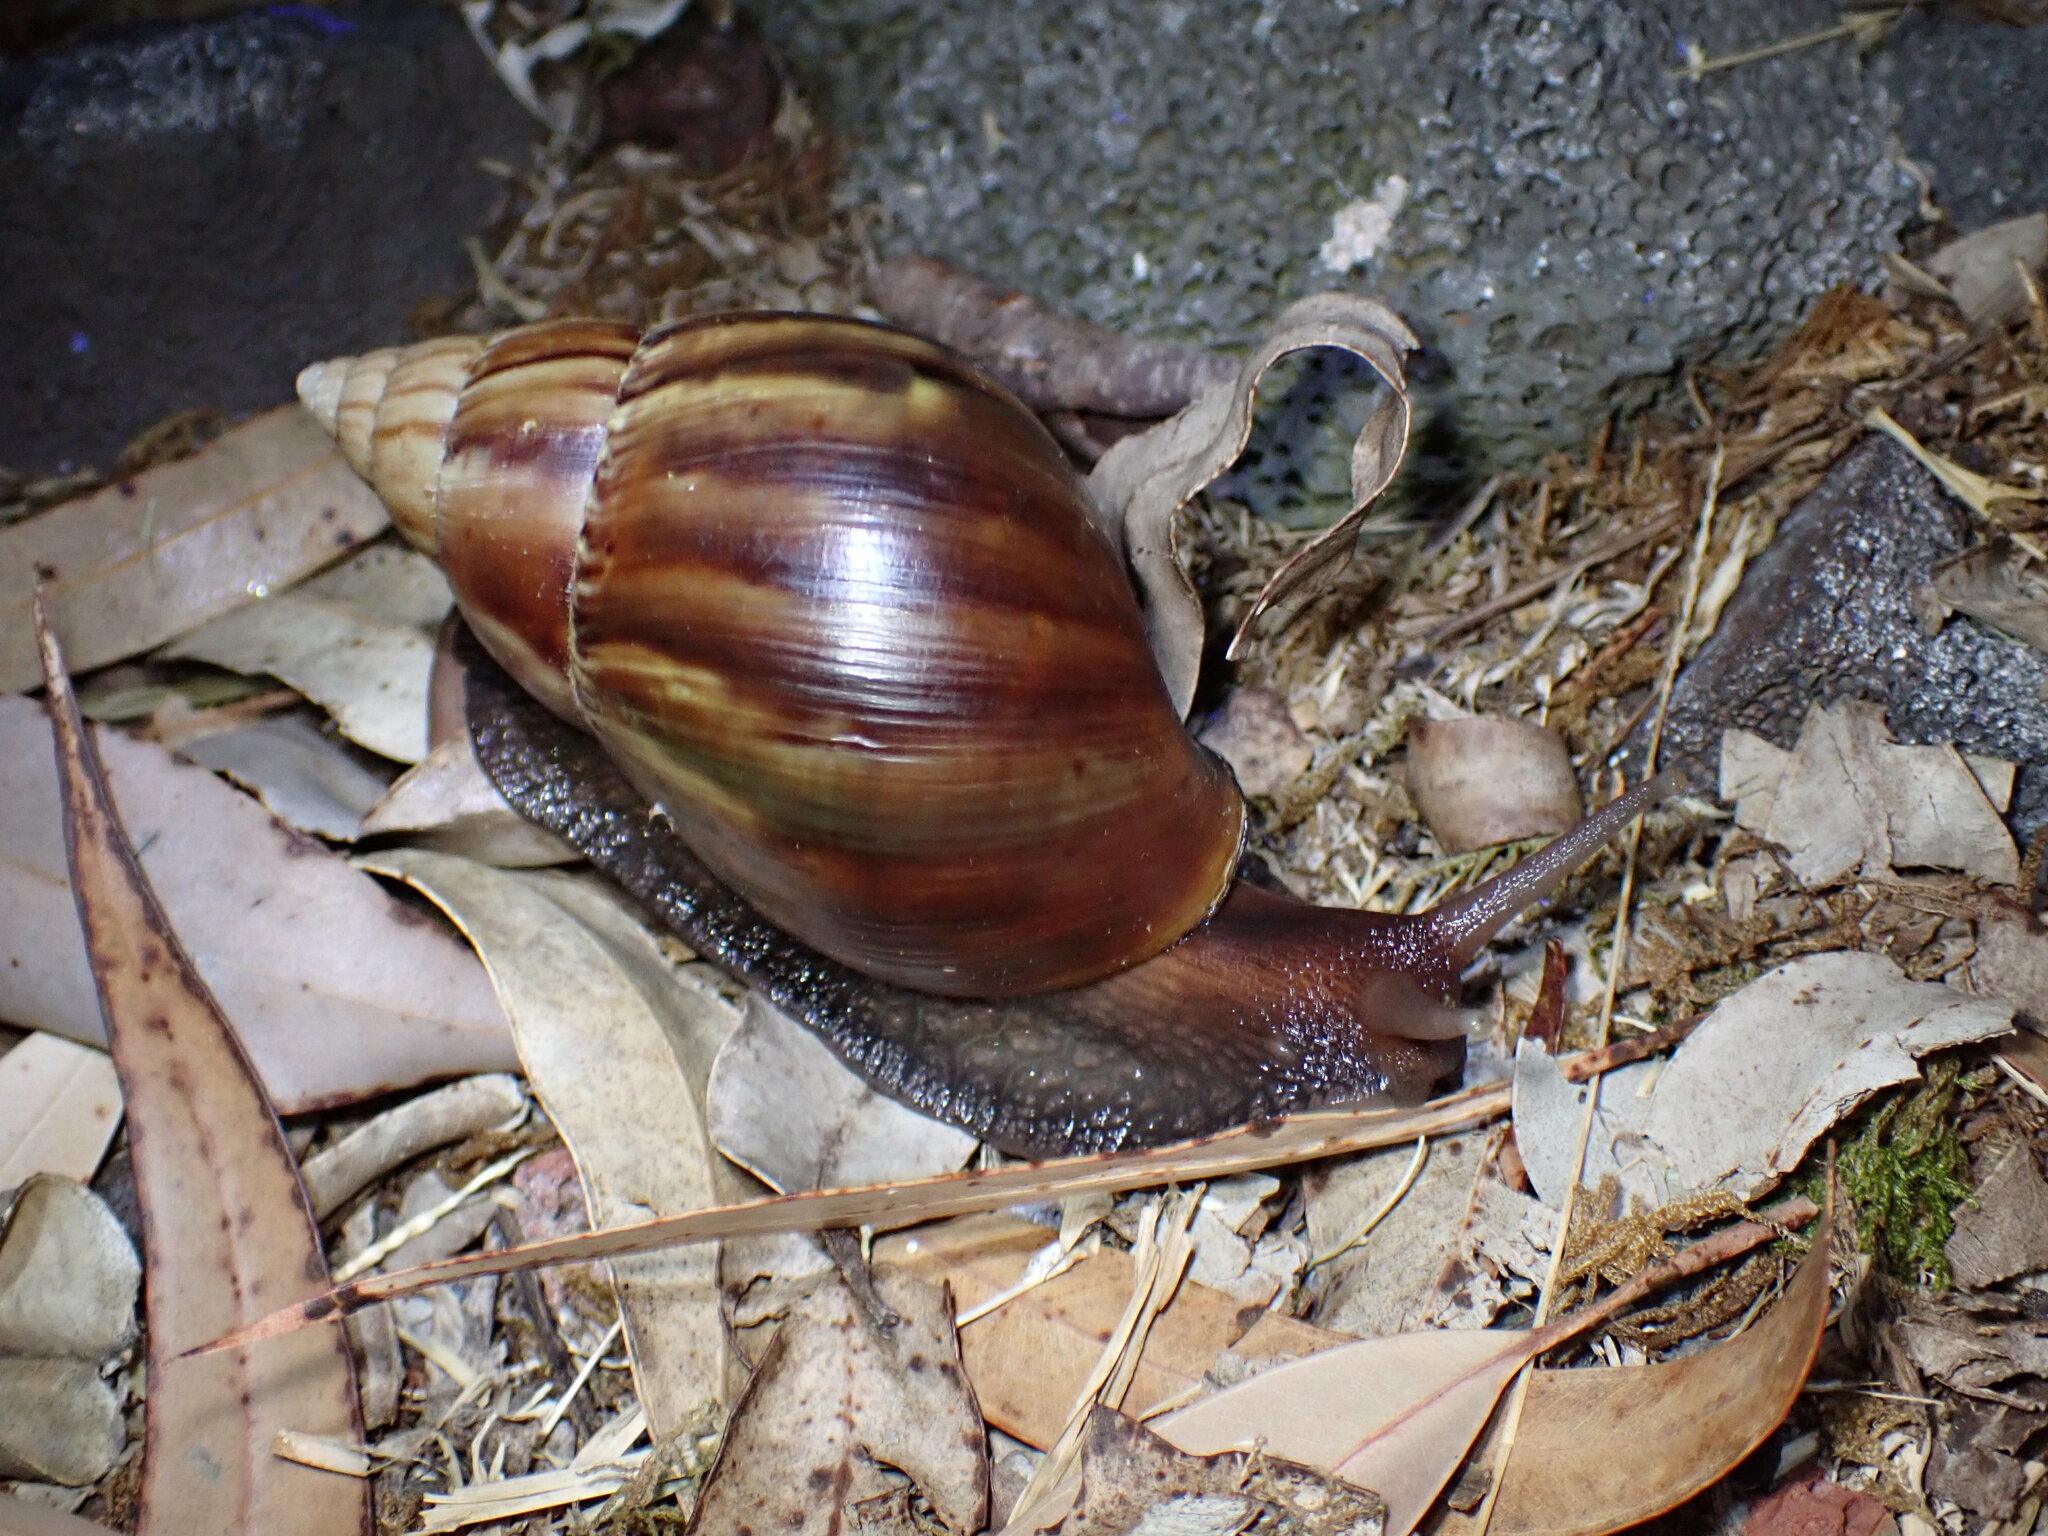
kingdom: Animalia
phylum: Mollusca
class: Gastropoda
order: Stylommatophora
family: Achatinidae
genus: Lissachatina
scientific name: Lissachatina fulica
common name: Giant african snail
